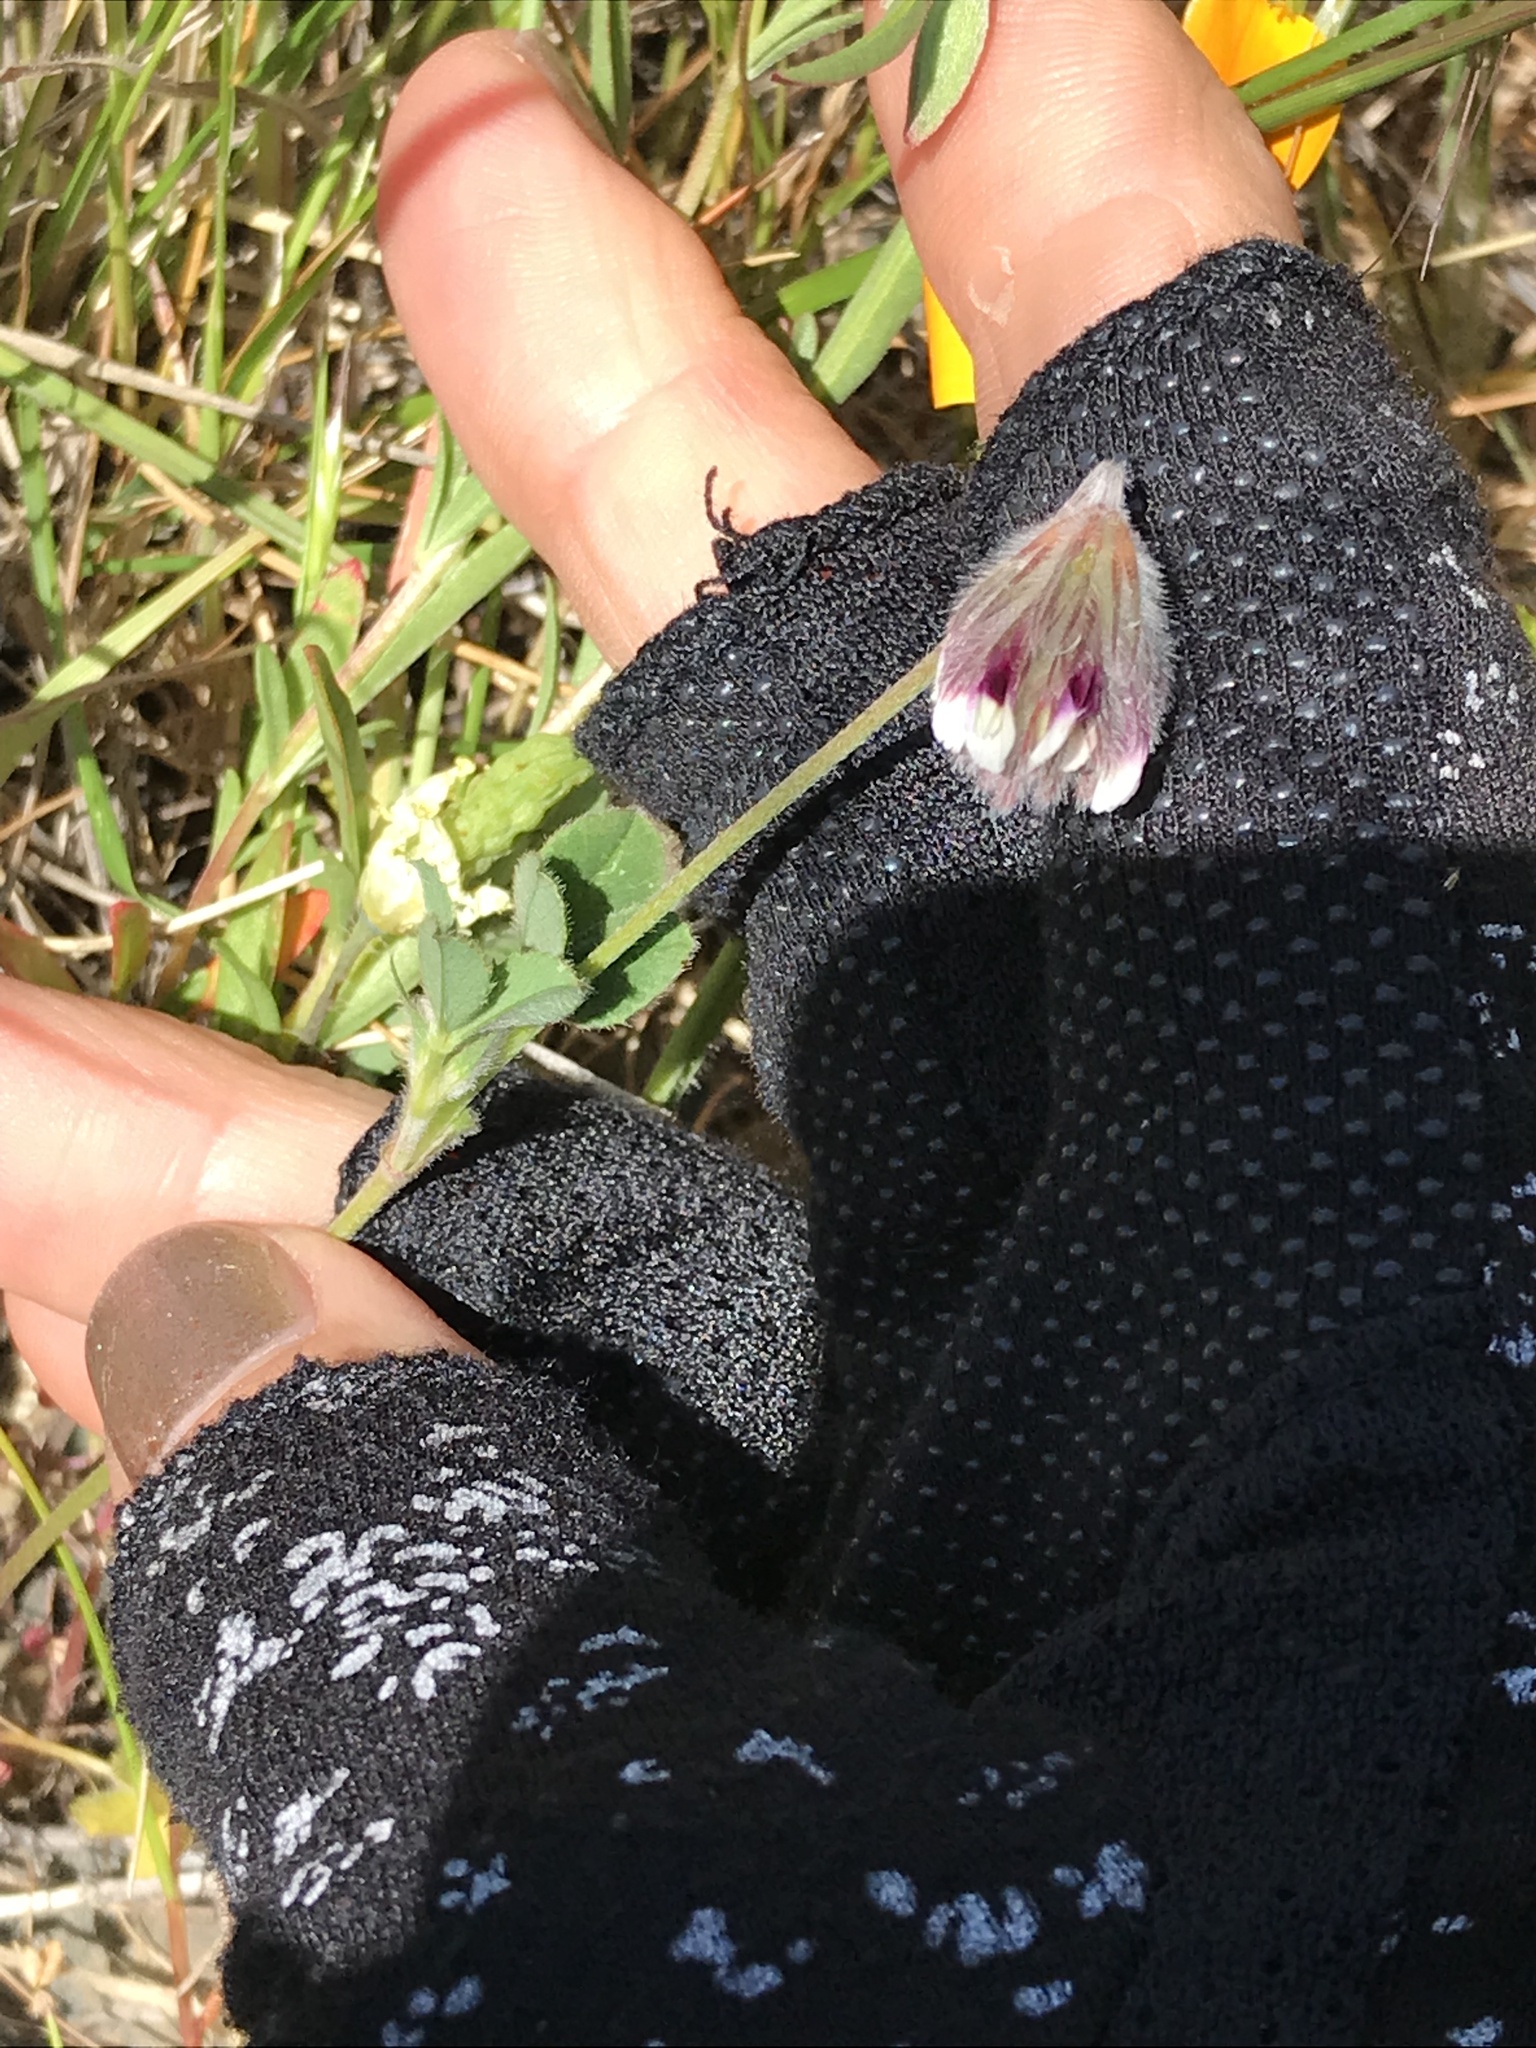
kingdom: Plantae
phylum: Tracheophyta
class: Magnoliopsida
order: Fabales
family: Fabaceae
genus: Trifolium
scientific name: Trifolium dichotomum
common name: Branched indian clover
